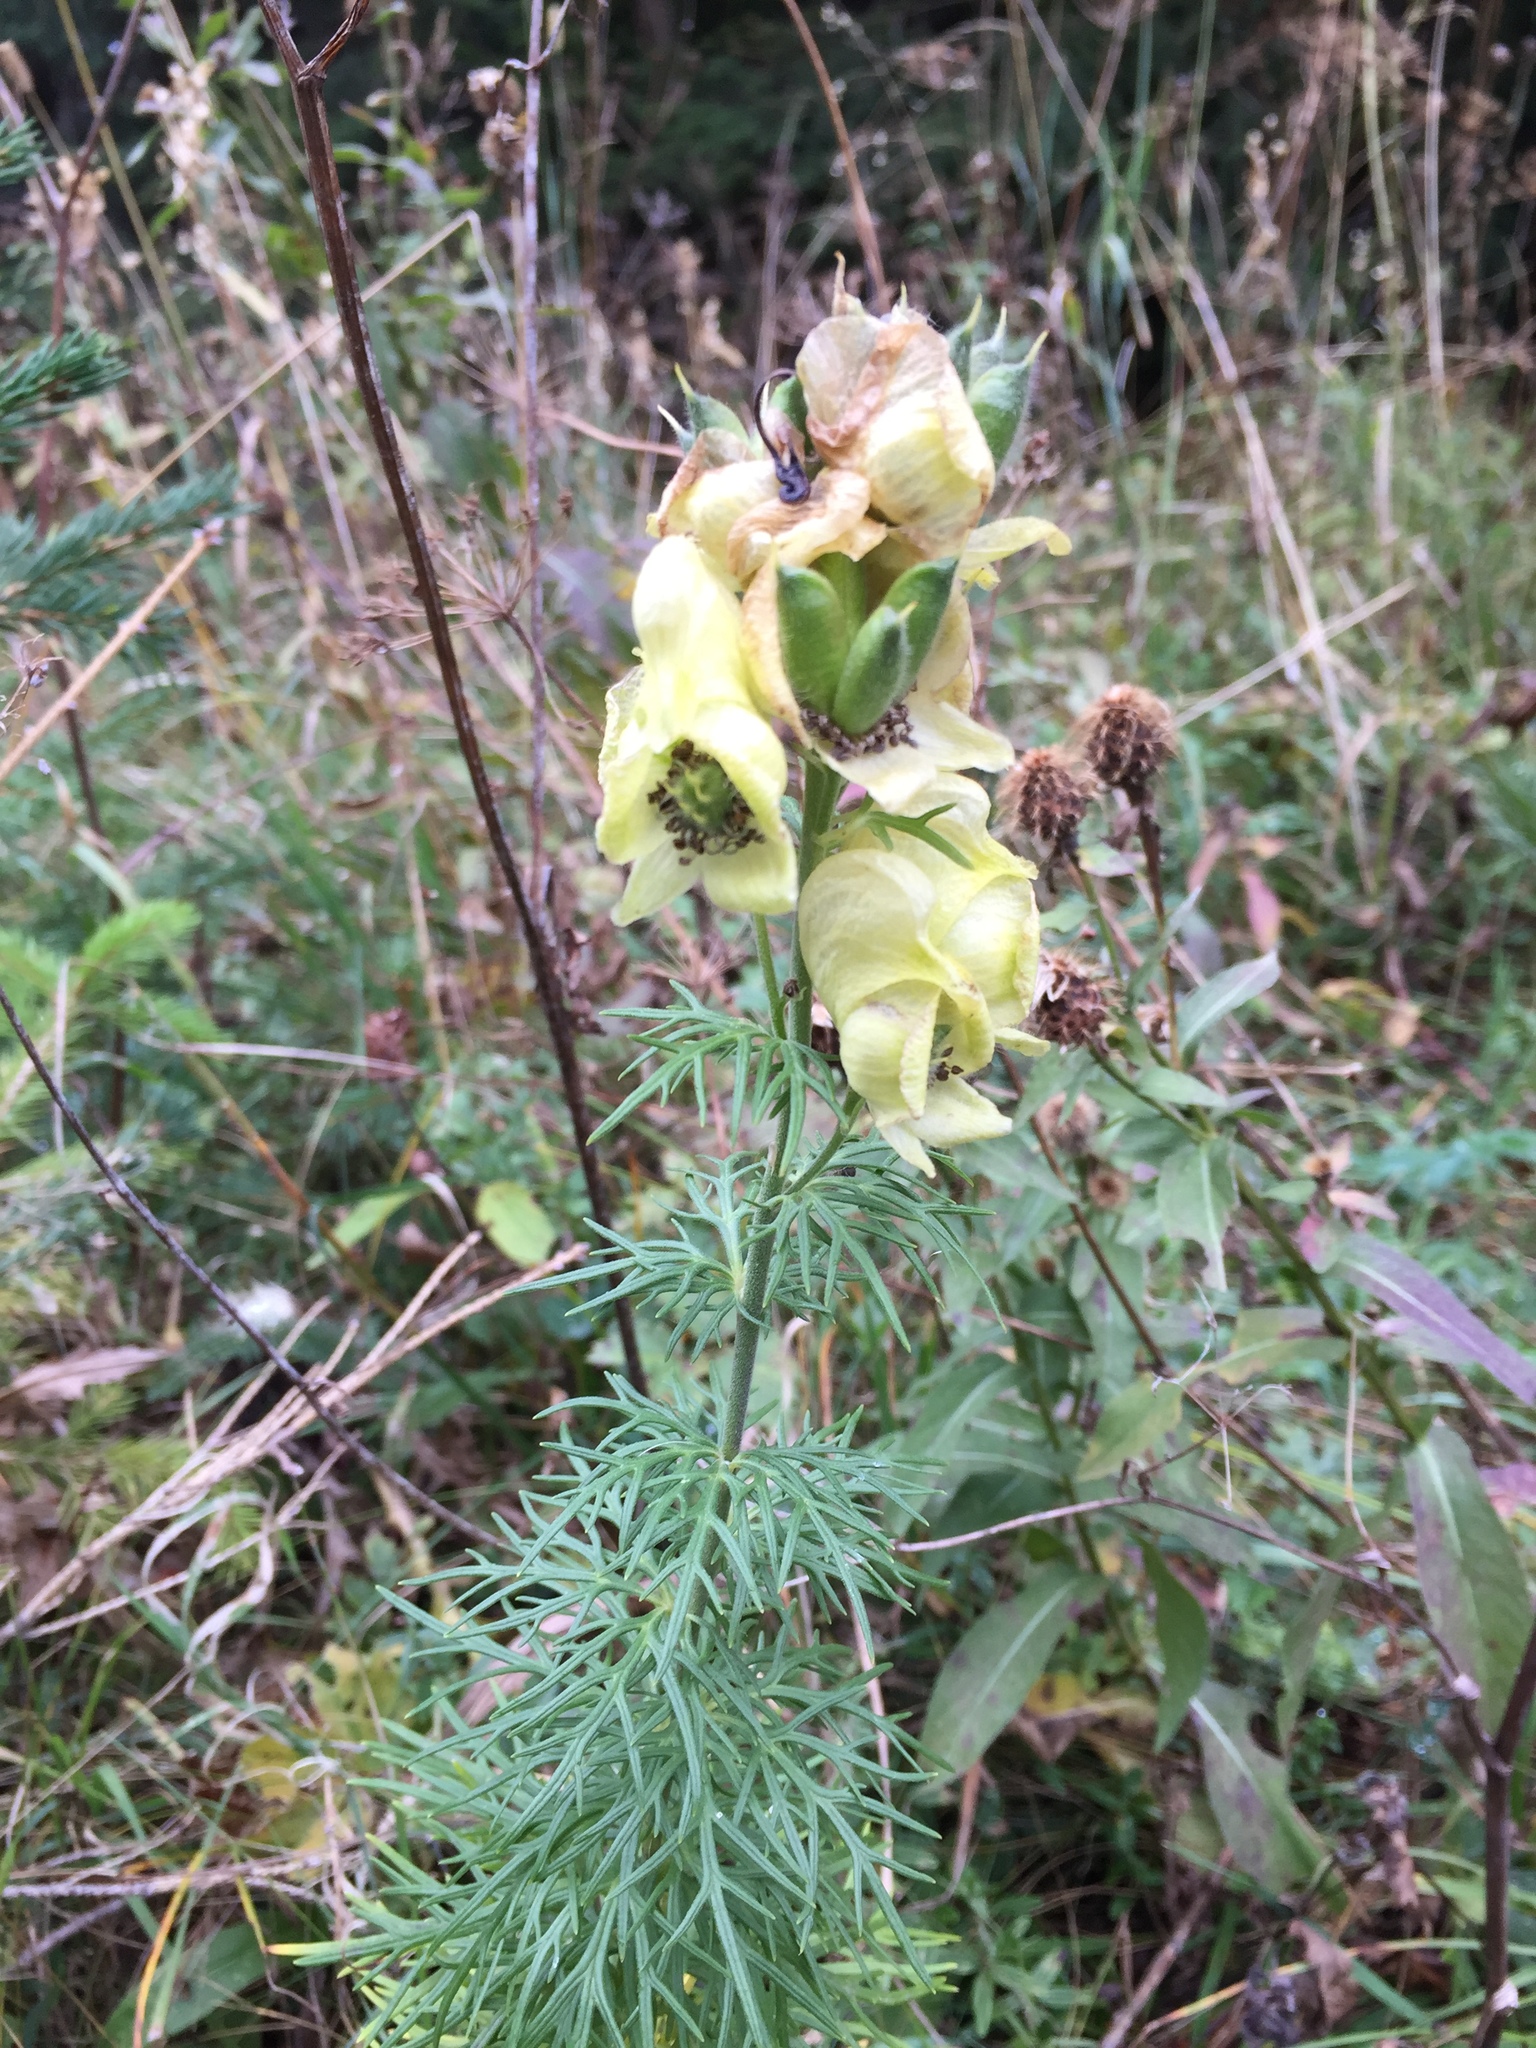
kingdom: Plantae
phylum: Tracheophyta
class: Magnoliopsida
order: Ranunculales
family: Ranunculaceae
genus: Aconitum
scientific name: Aconitum anthora
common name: Yellow monkshood
